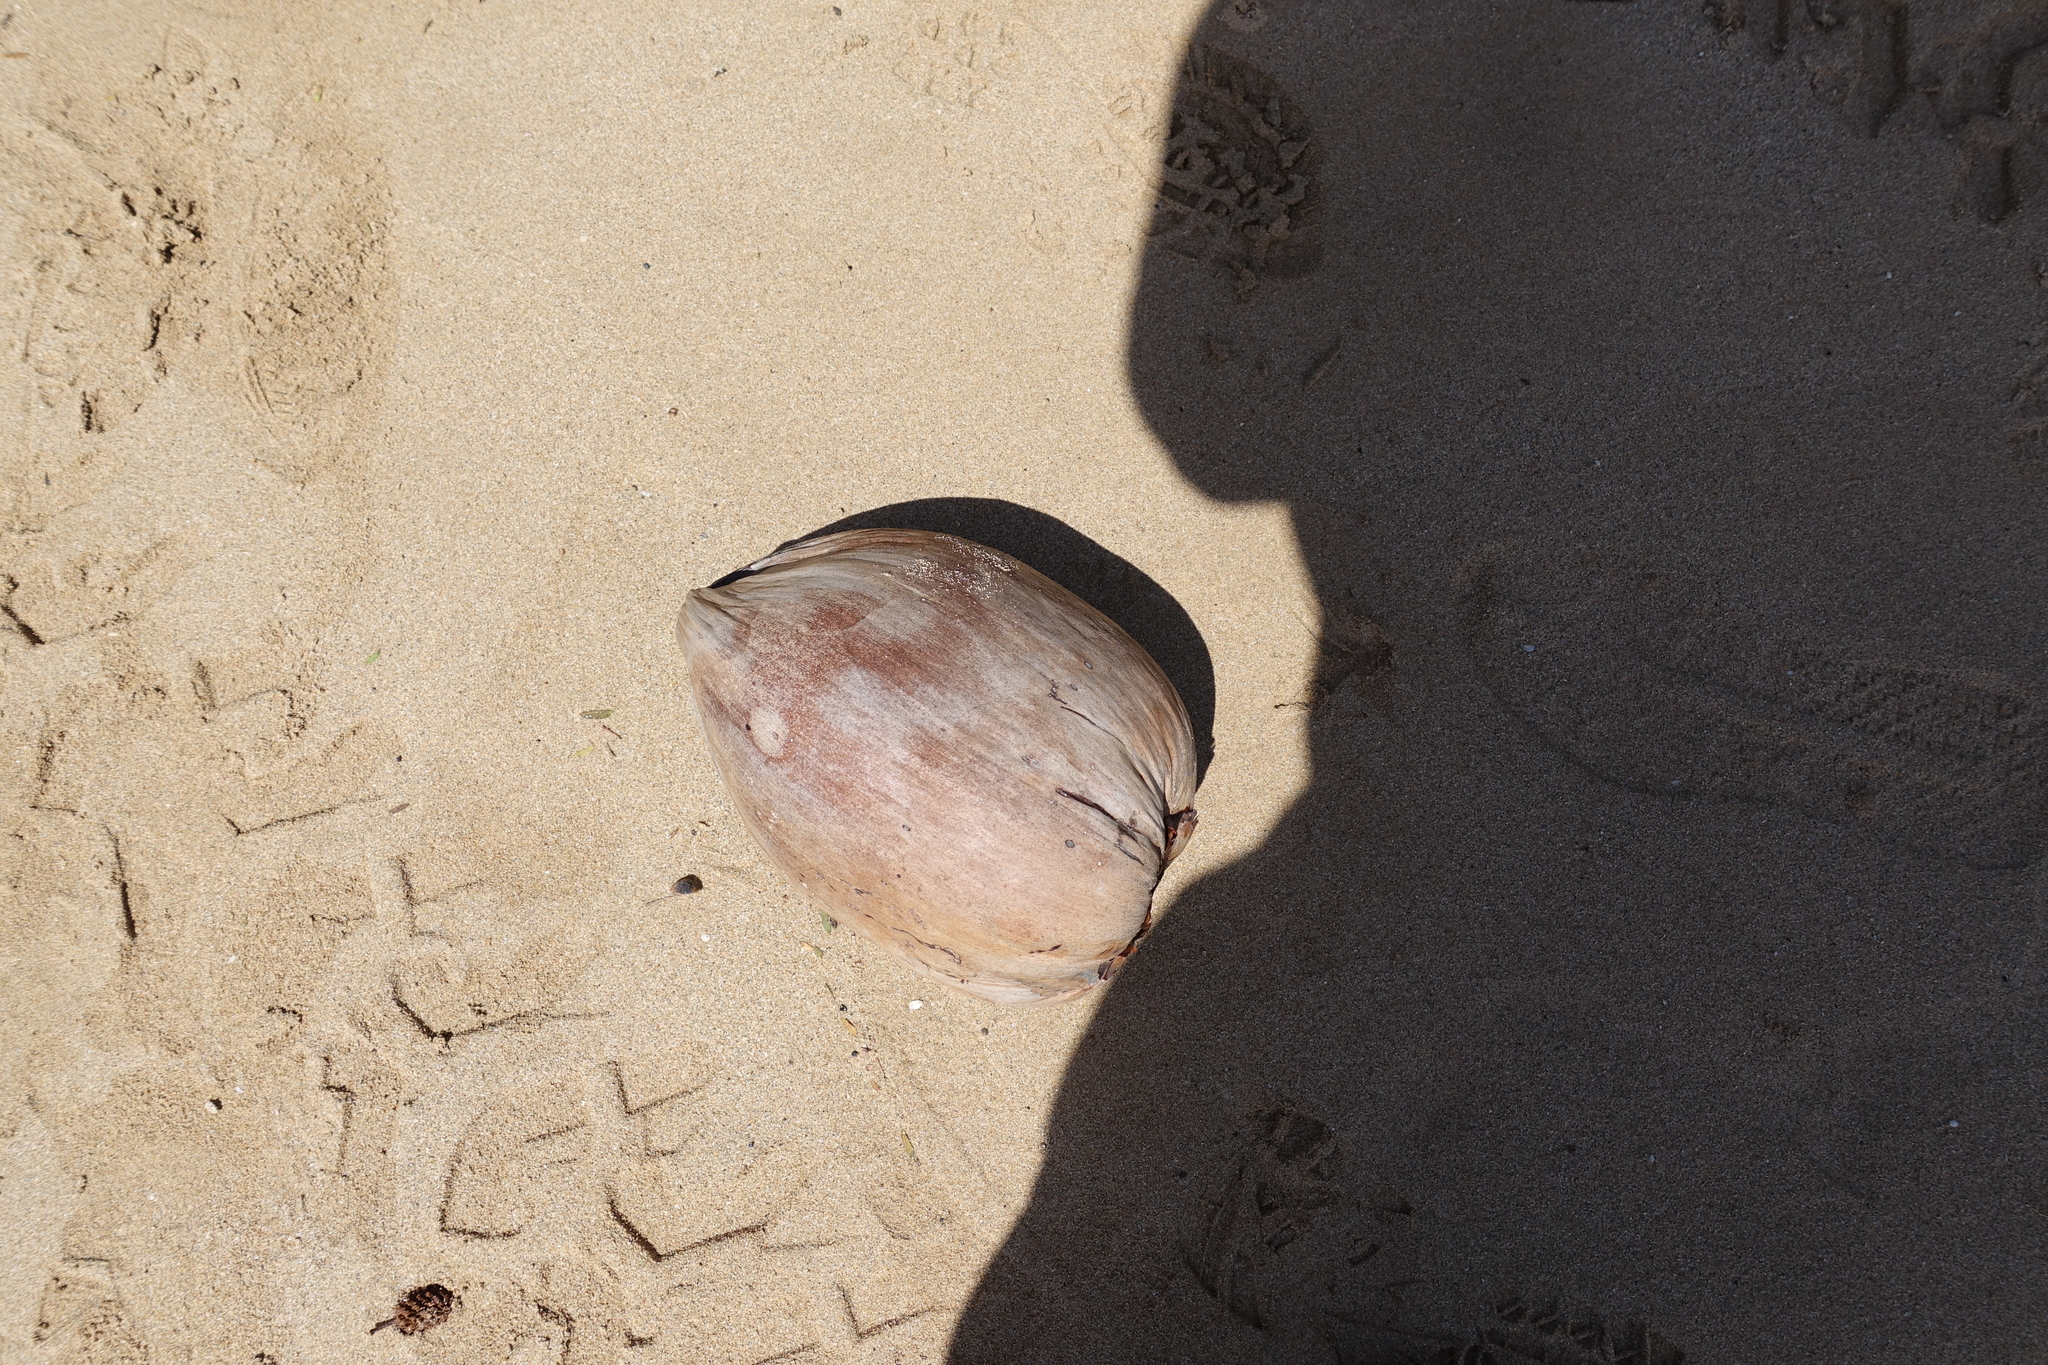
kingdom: Plantae
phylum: Tracheophyta
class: Liliopsida
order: Arecales
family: Arecaceae
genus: Cocos
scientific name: Cocos nucifera
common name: Coconut palm
